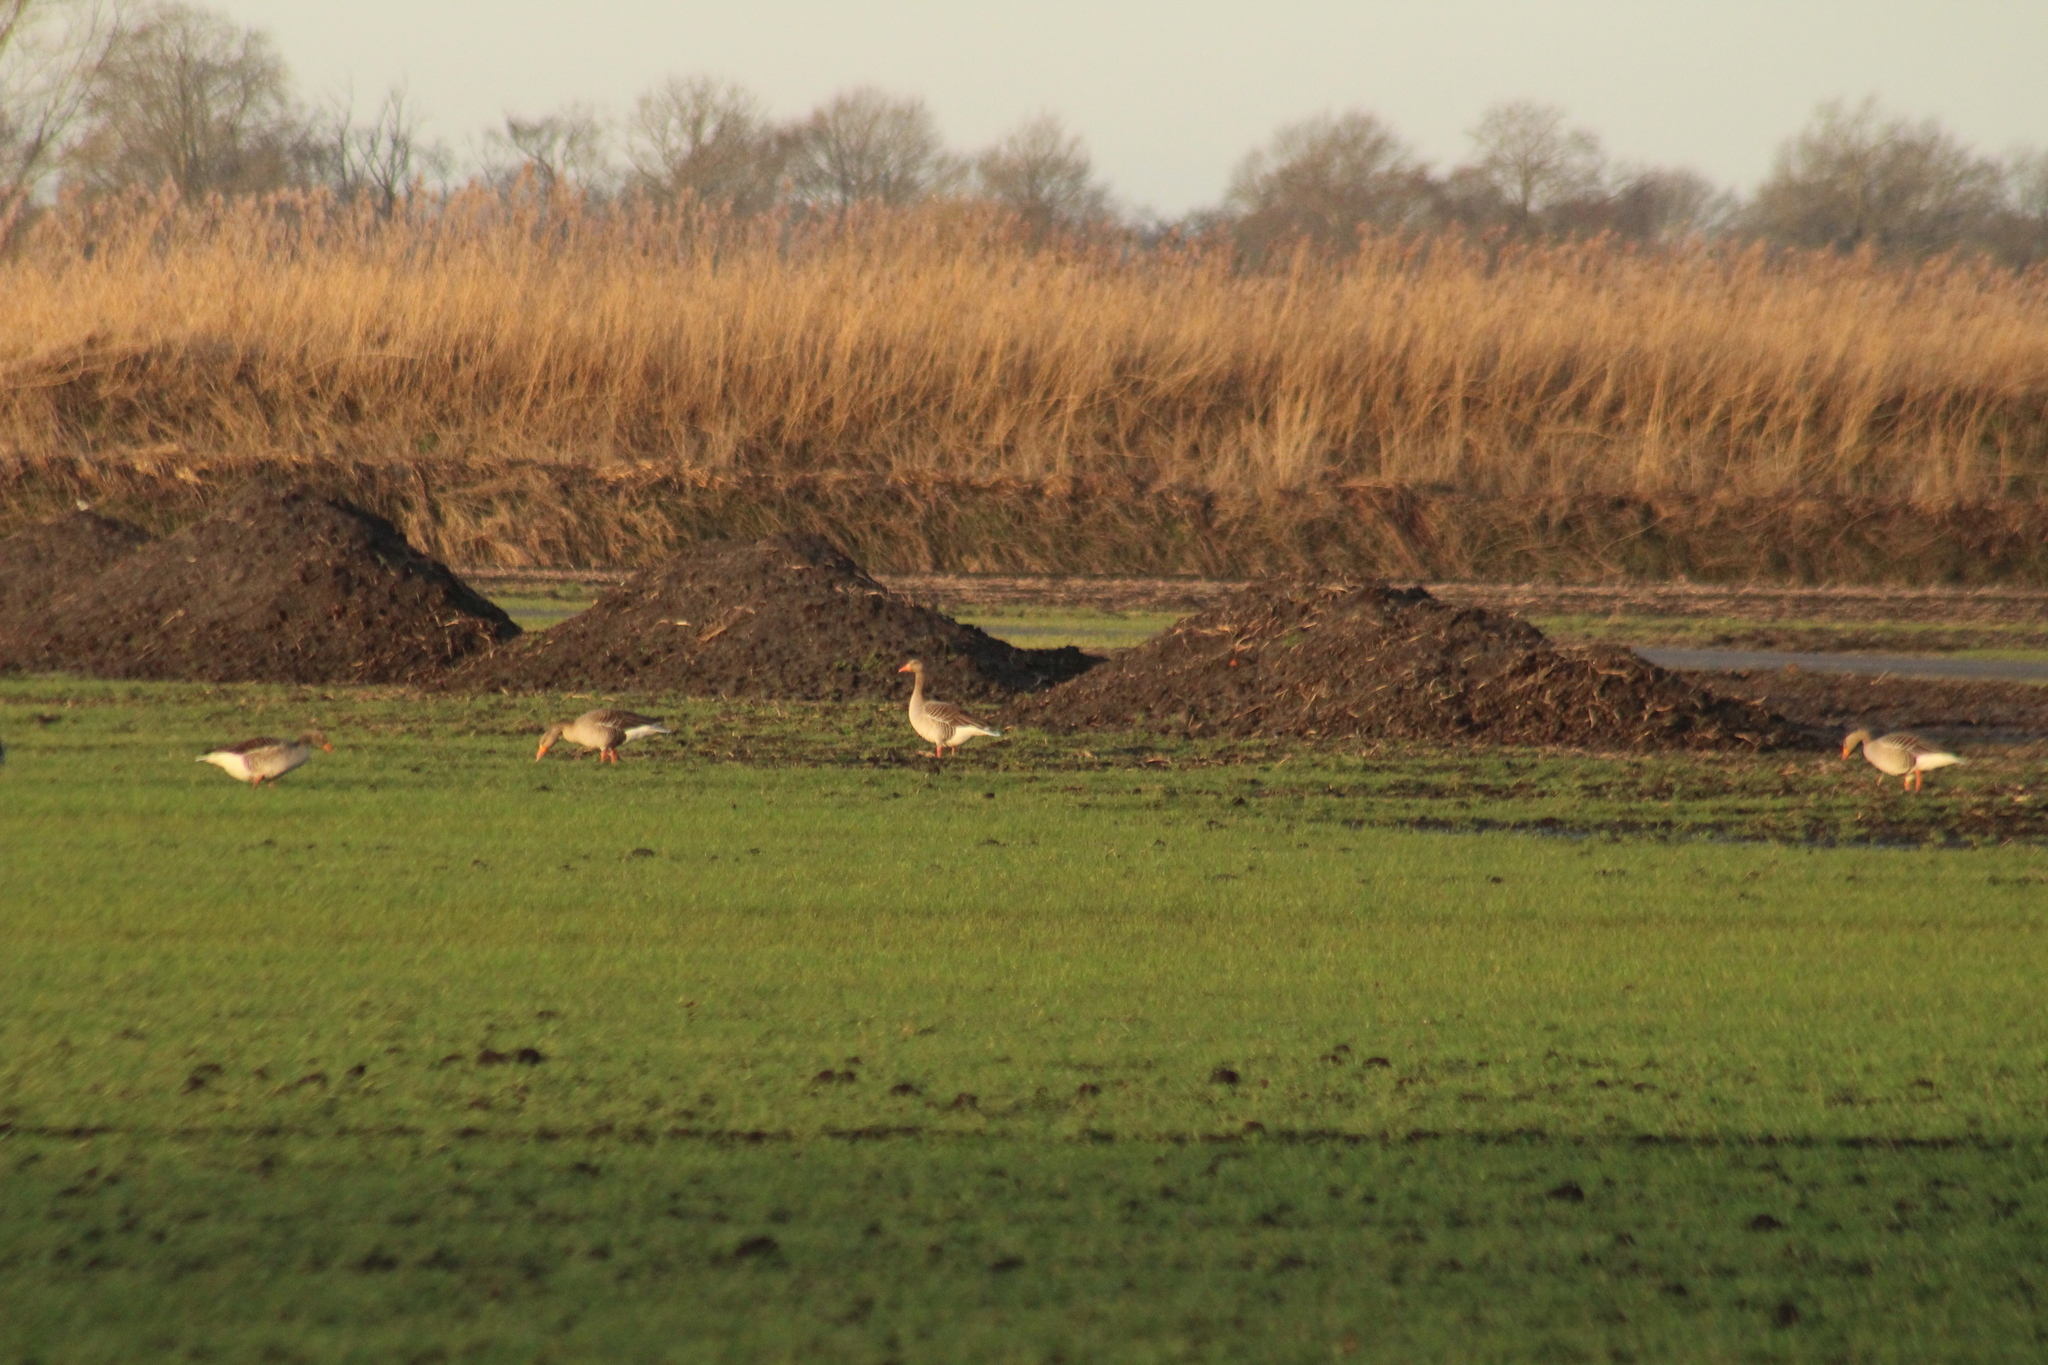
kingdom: Animalia
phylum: Chordata
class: Aves
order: Anseriformes
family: Anatidae
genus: Anser
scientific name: Anser anser
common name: Greylag goose
